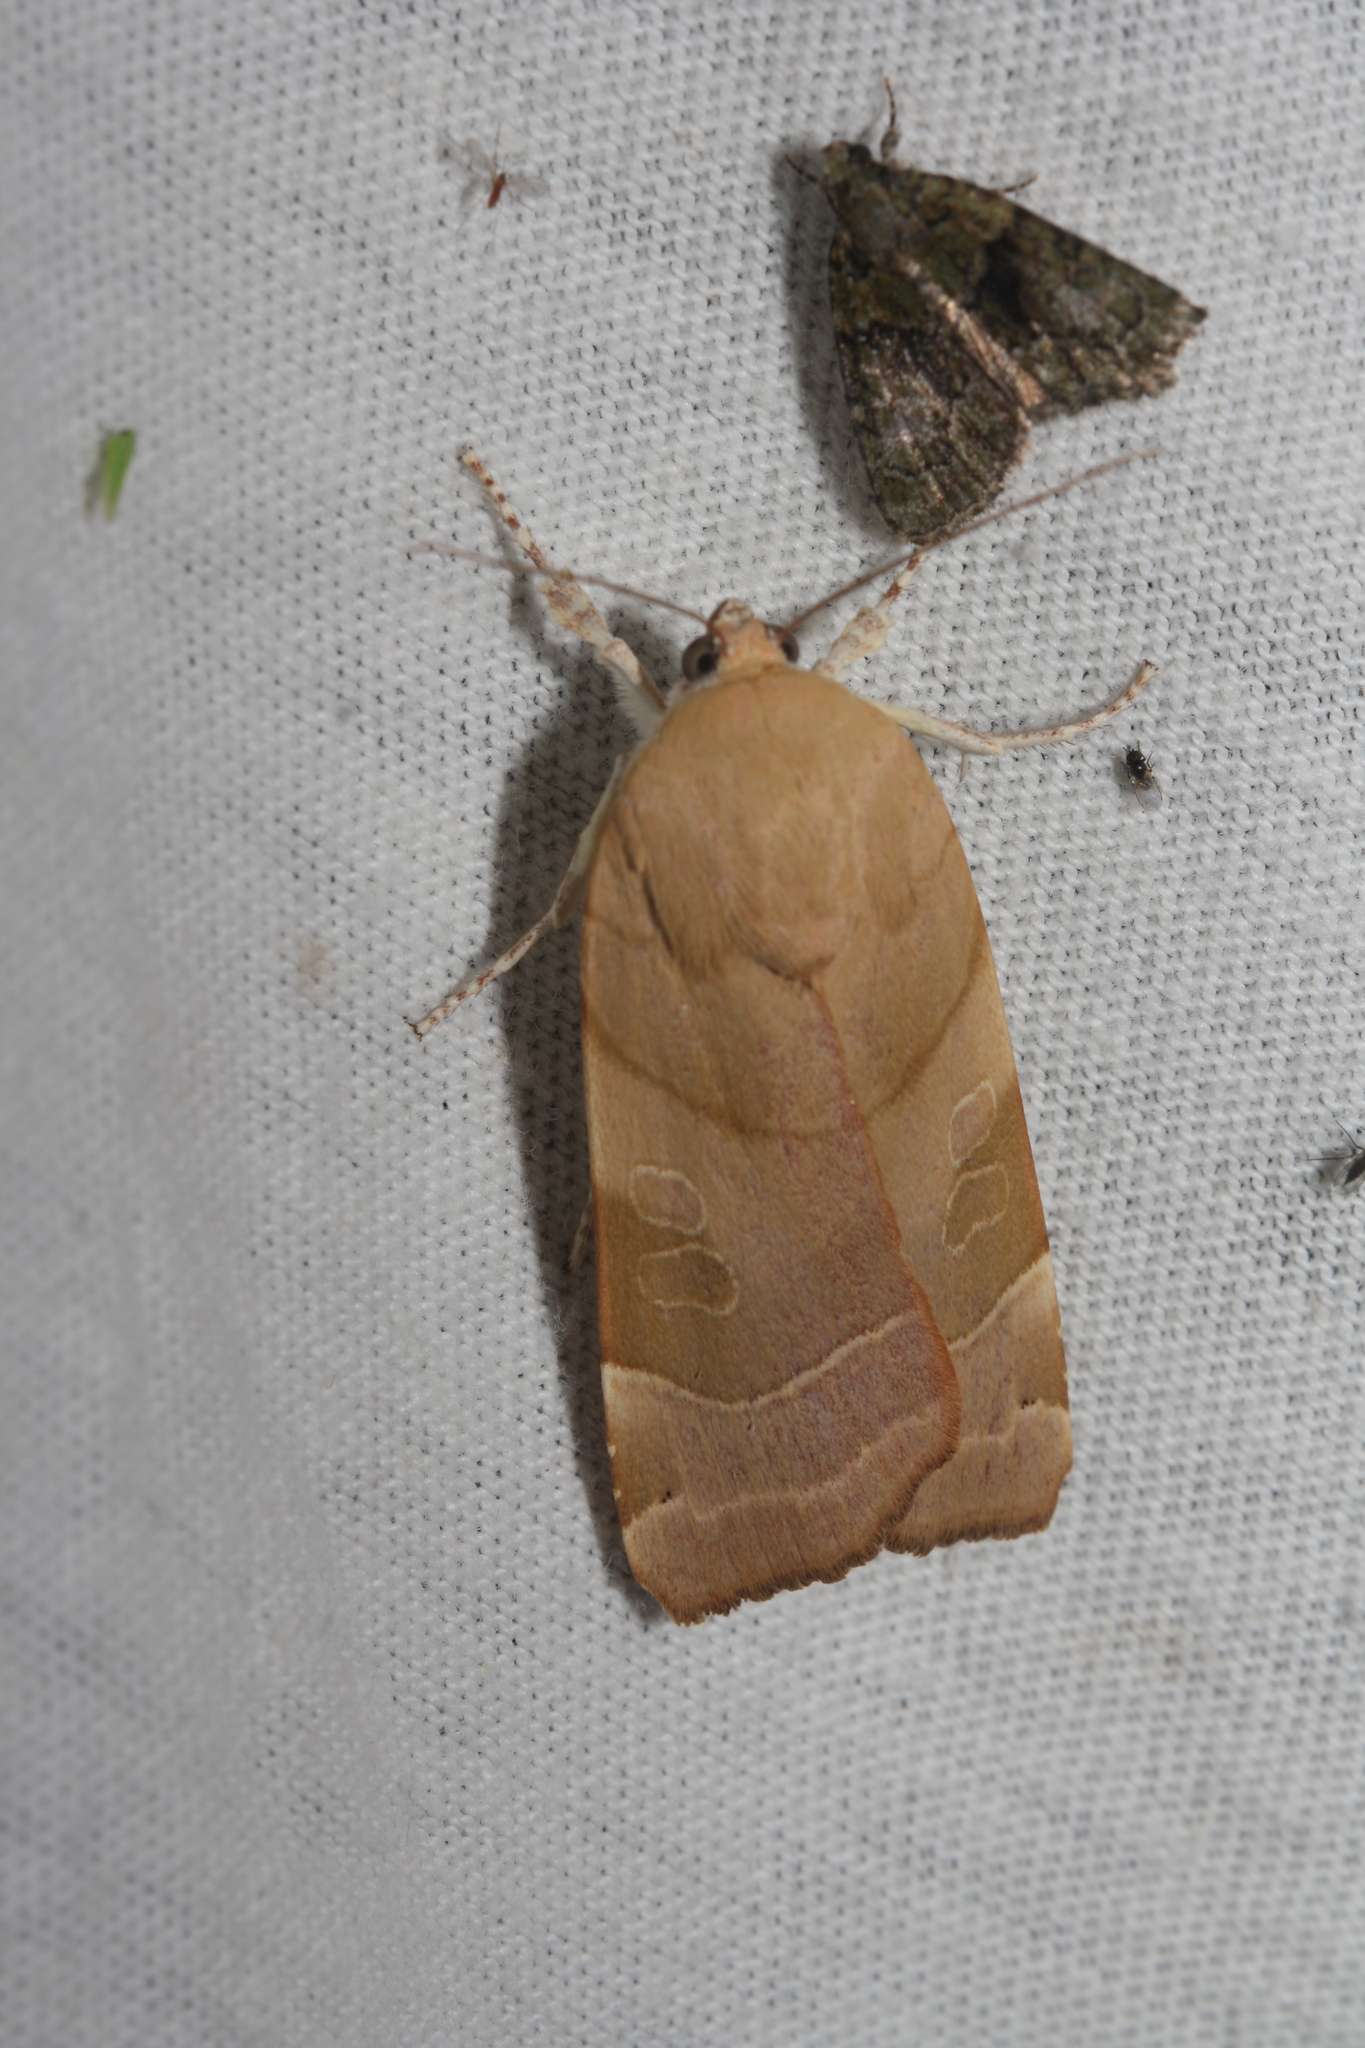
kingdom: Animalia
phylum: Arthropoda
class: Insecta
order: Lepidoptera
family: Noctuidae
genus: Noctua
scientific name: Noctua fimbriata
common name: Broad-bordered yellow underwing
